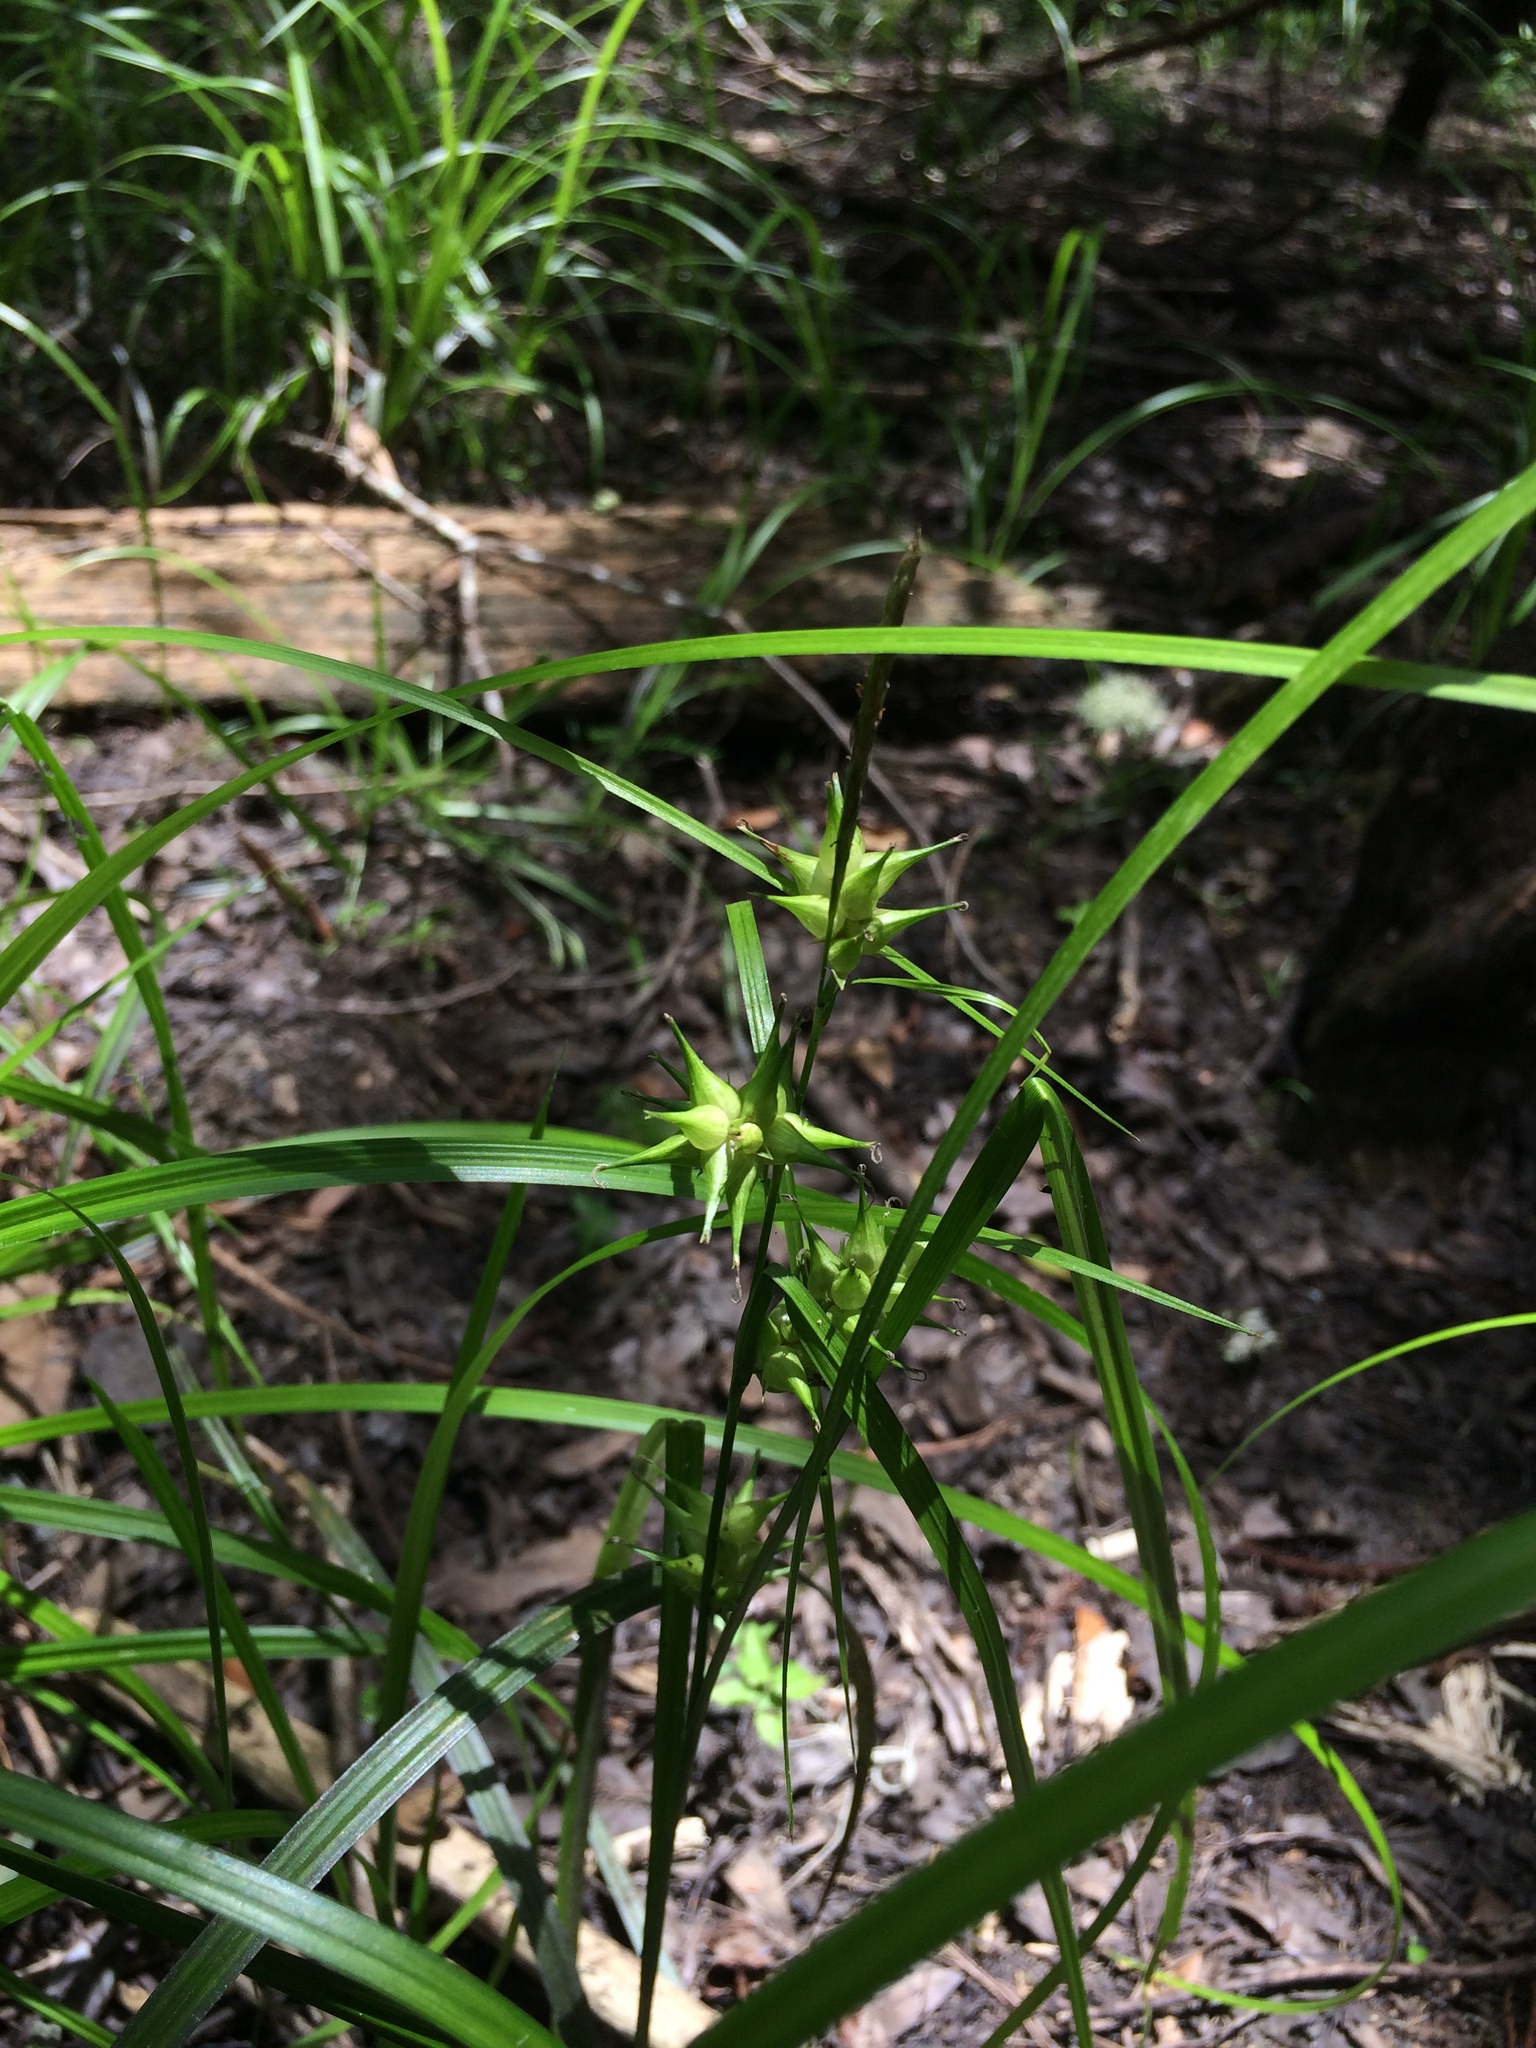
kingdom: Plantae
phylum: Tracheophyta
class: Liliopsida
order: Poales
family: Cyperaceae
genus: Carex
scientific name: Carex
